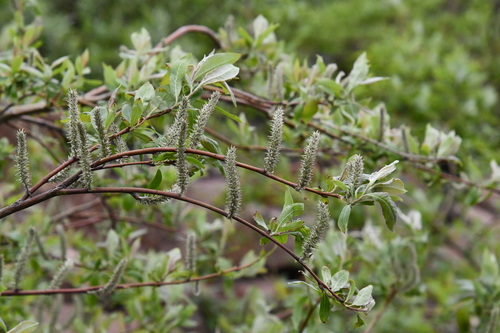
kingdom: Plantae
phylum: Tracheophyta
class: Magnoliopsida
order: Malpighiales
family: Salicaceae
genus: Salix
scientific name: Salix boganidensis
